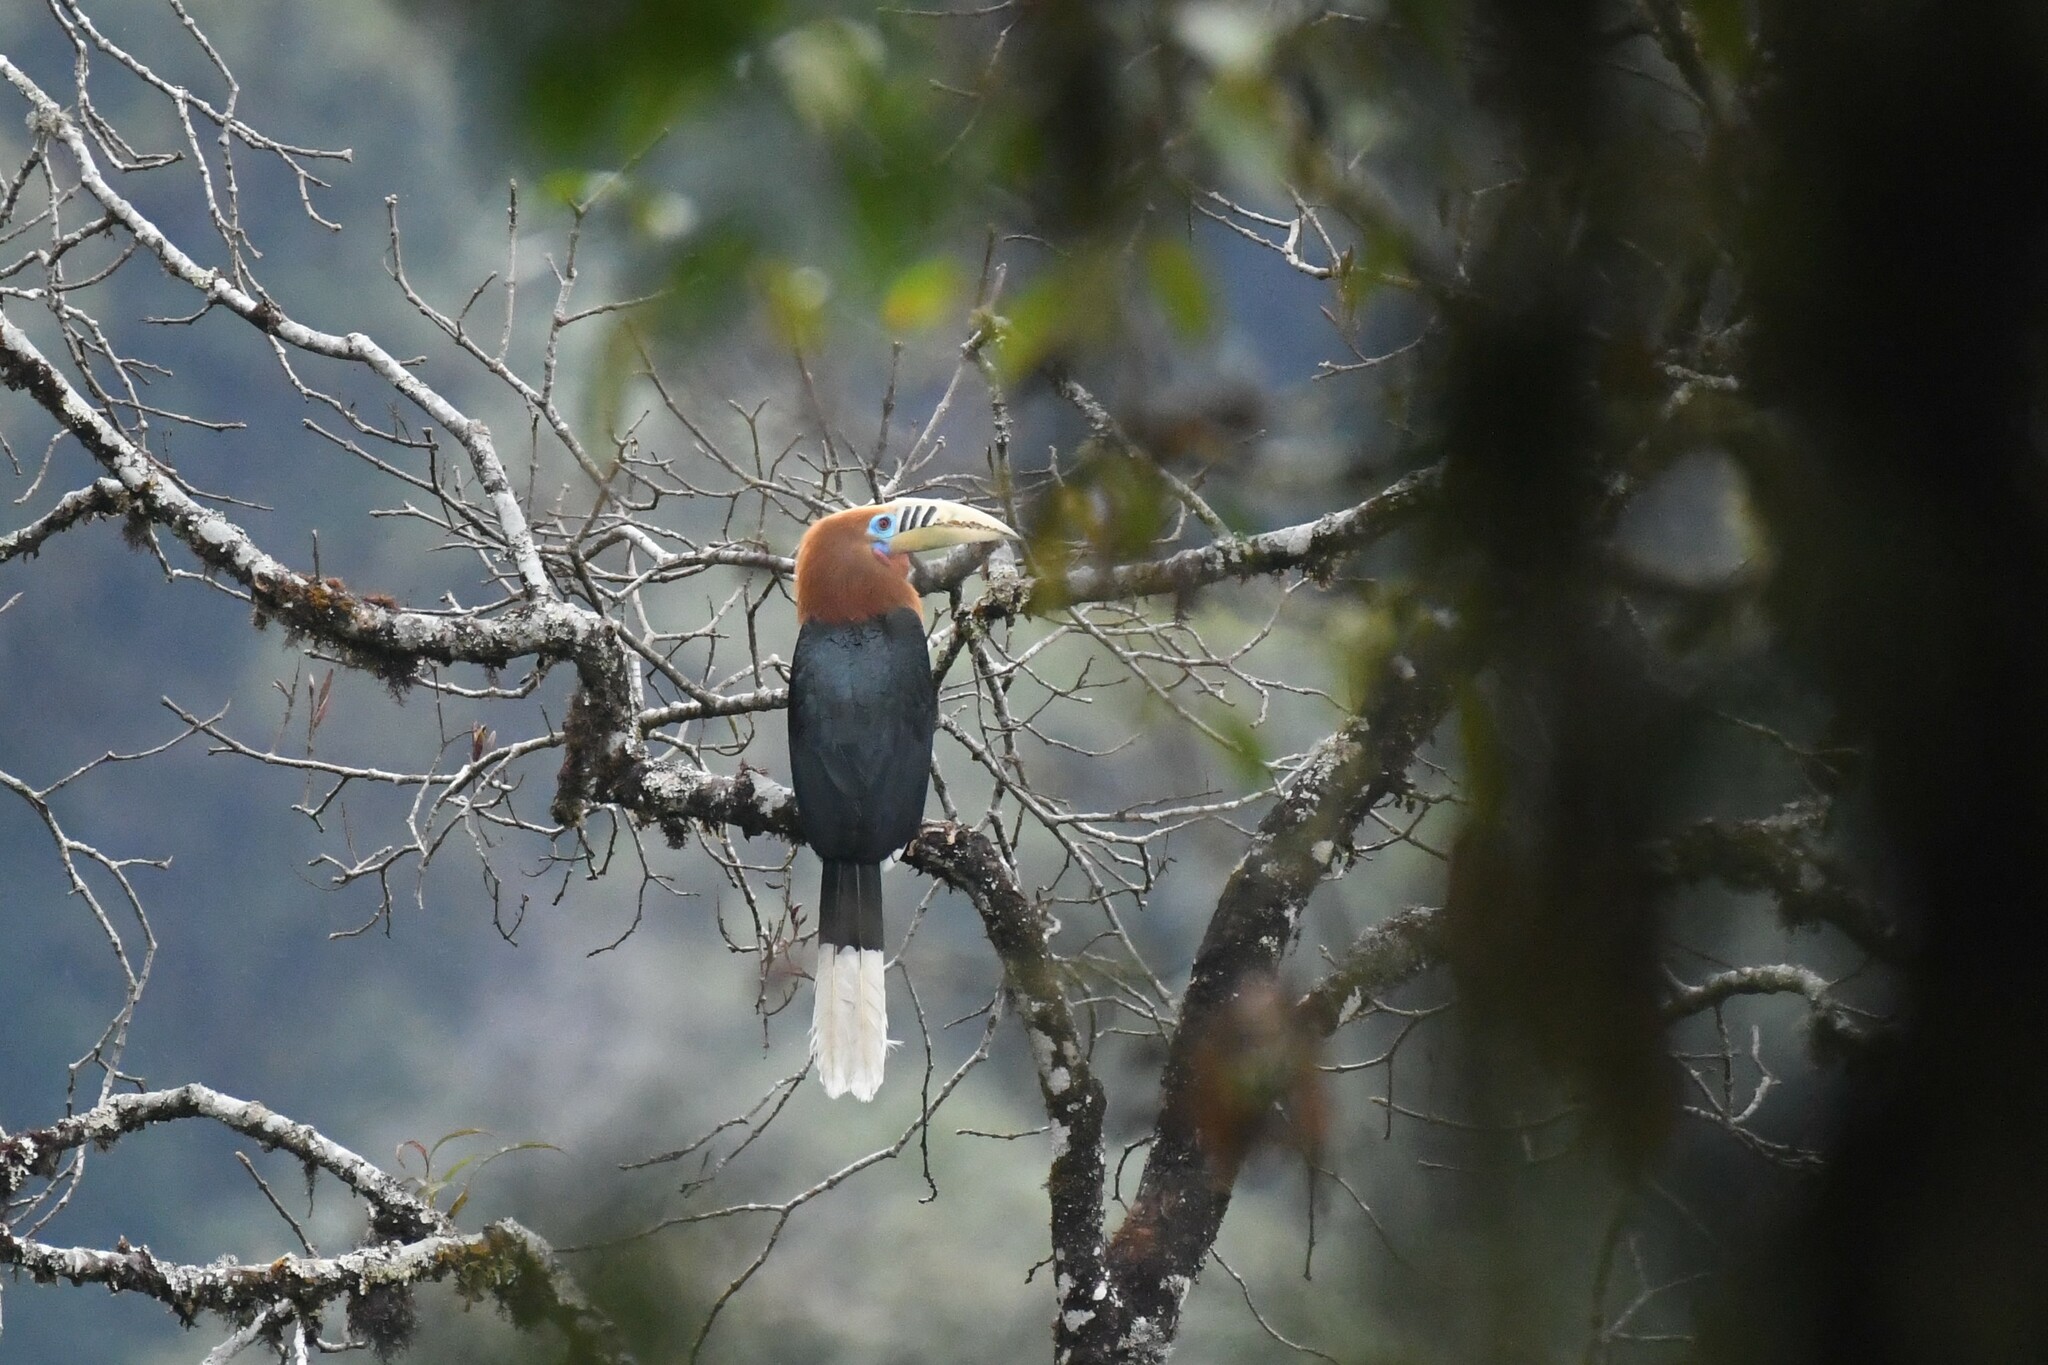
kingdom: Animalia
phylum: Chordata
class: Aves
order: Bucerotiformes
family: Bucerotidae
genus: Aceros
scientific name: Aceros nipalensis
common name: Rufous-necked hornbill
